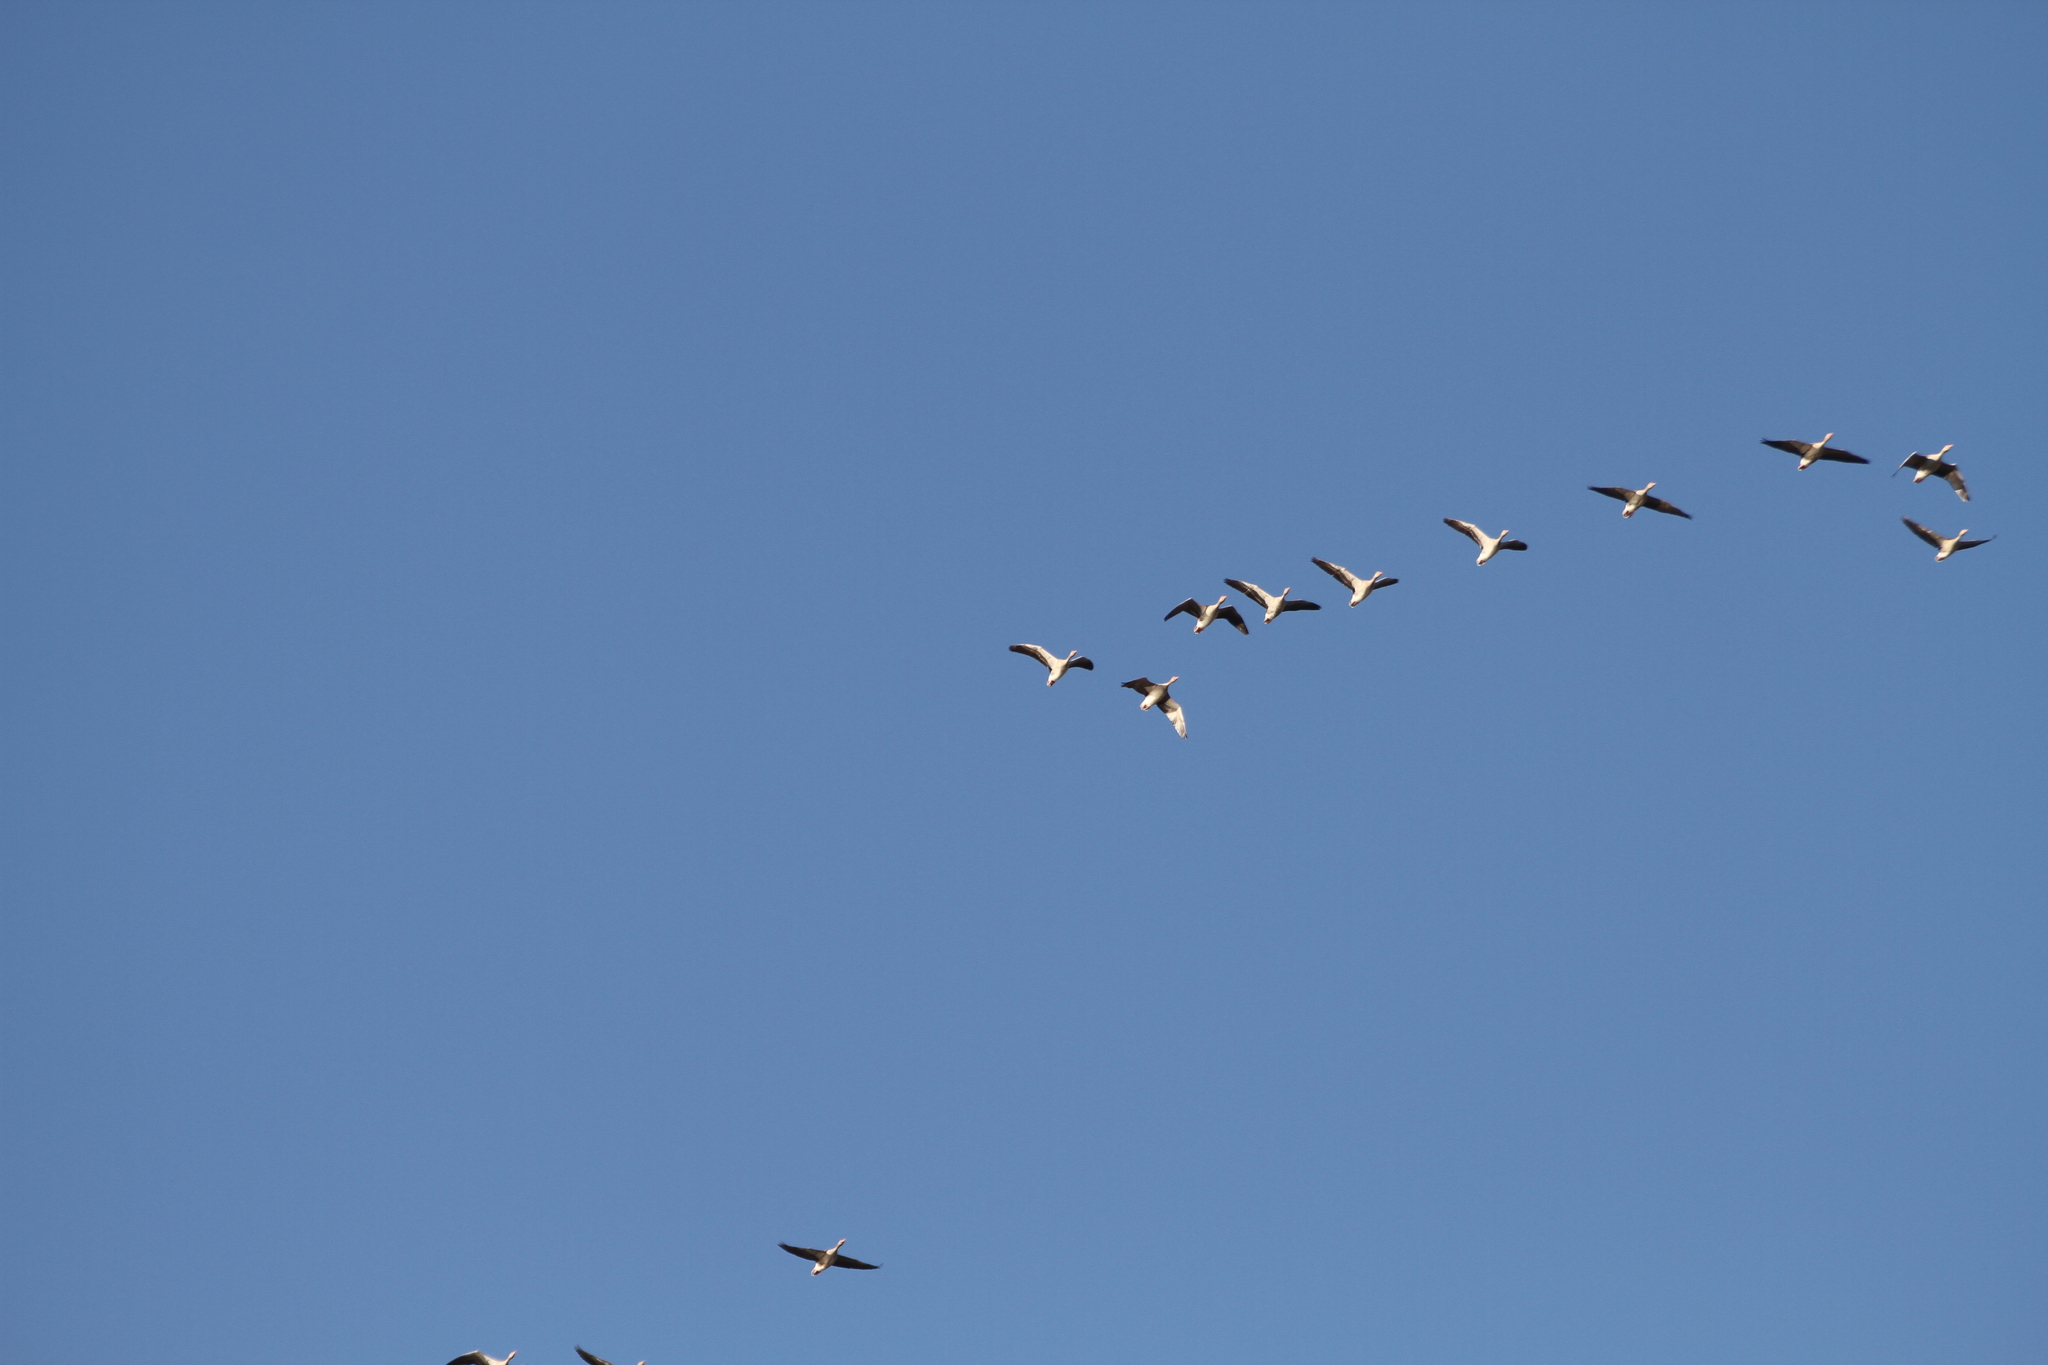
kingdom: Animalia
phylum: Chordata
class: Aves
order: Anseriformes
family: Anatidae
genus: Anser
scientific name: Anser anser
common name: Greylag goose
